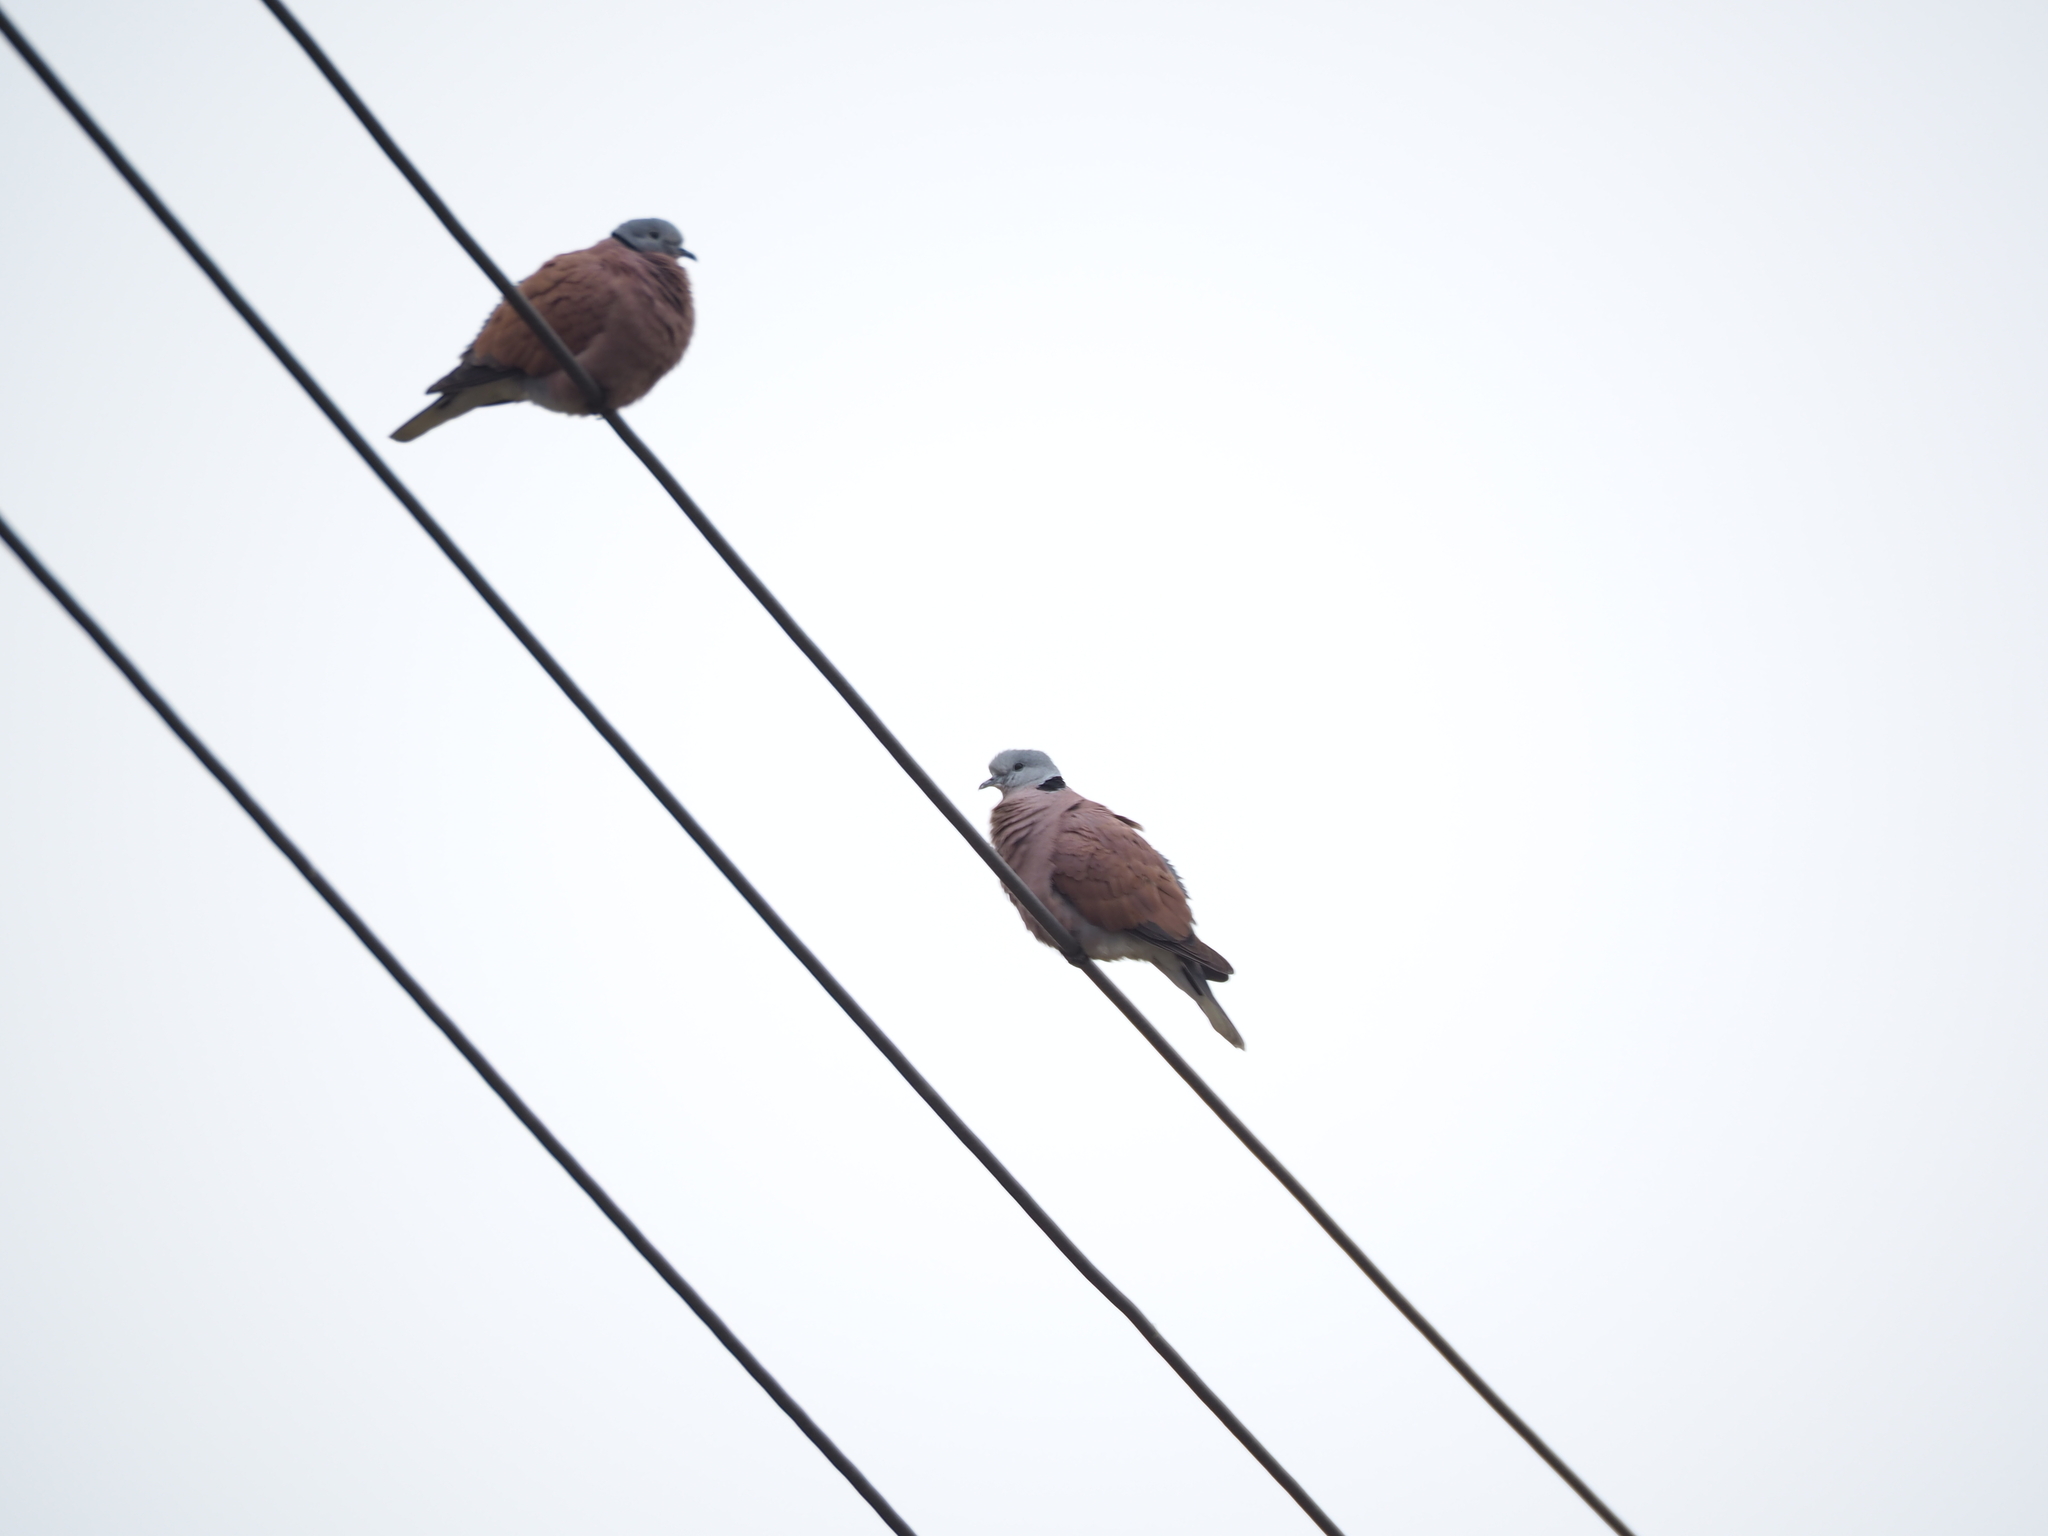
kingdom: Animalia
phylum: Chordata
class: Aves
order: Columbiformes
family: Columbidae
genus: Streptopelia
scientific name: Streptopelia tranquebarica
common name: Red turtle dove
